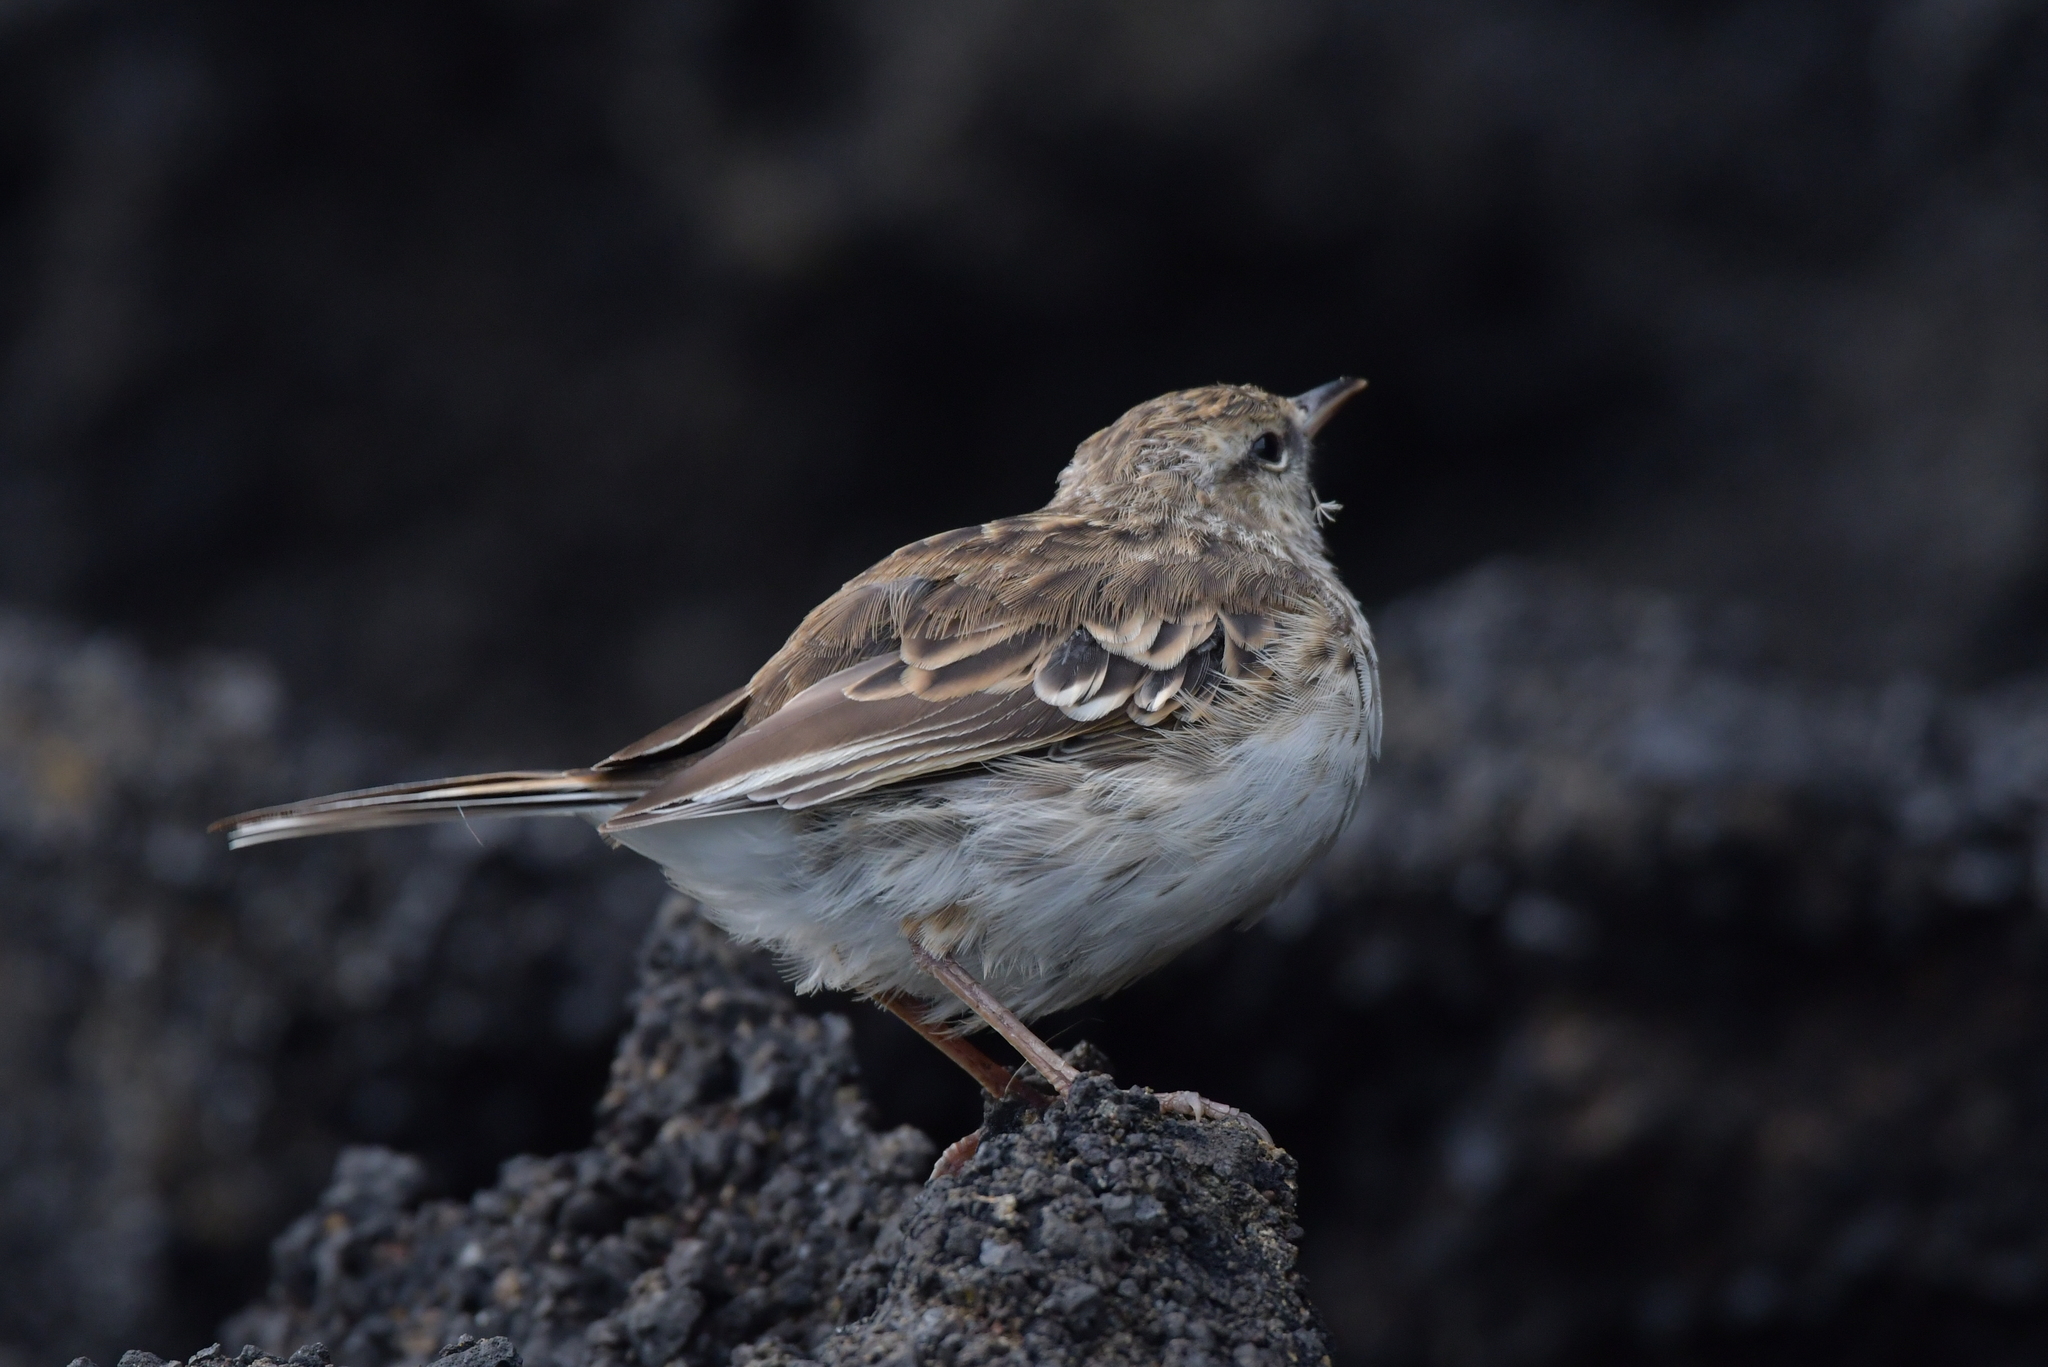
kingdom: Animalia
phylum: Chordata
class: Aves
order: Passeriformes
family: Motacillidae
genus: Anthus
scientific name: Anthus novaeseelandiae
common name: New zealand pipit
